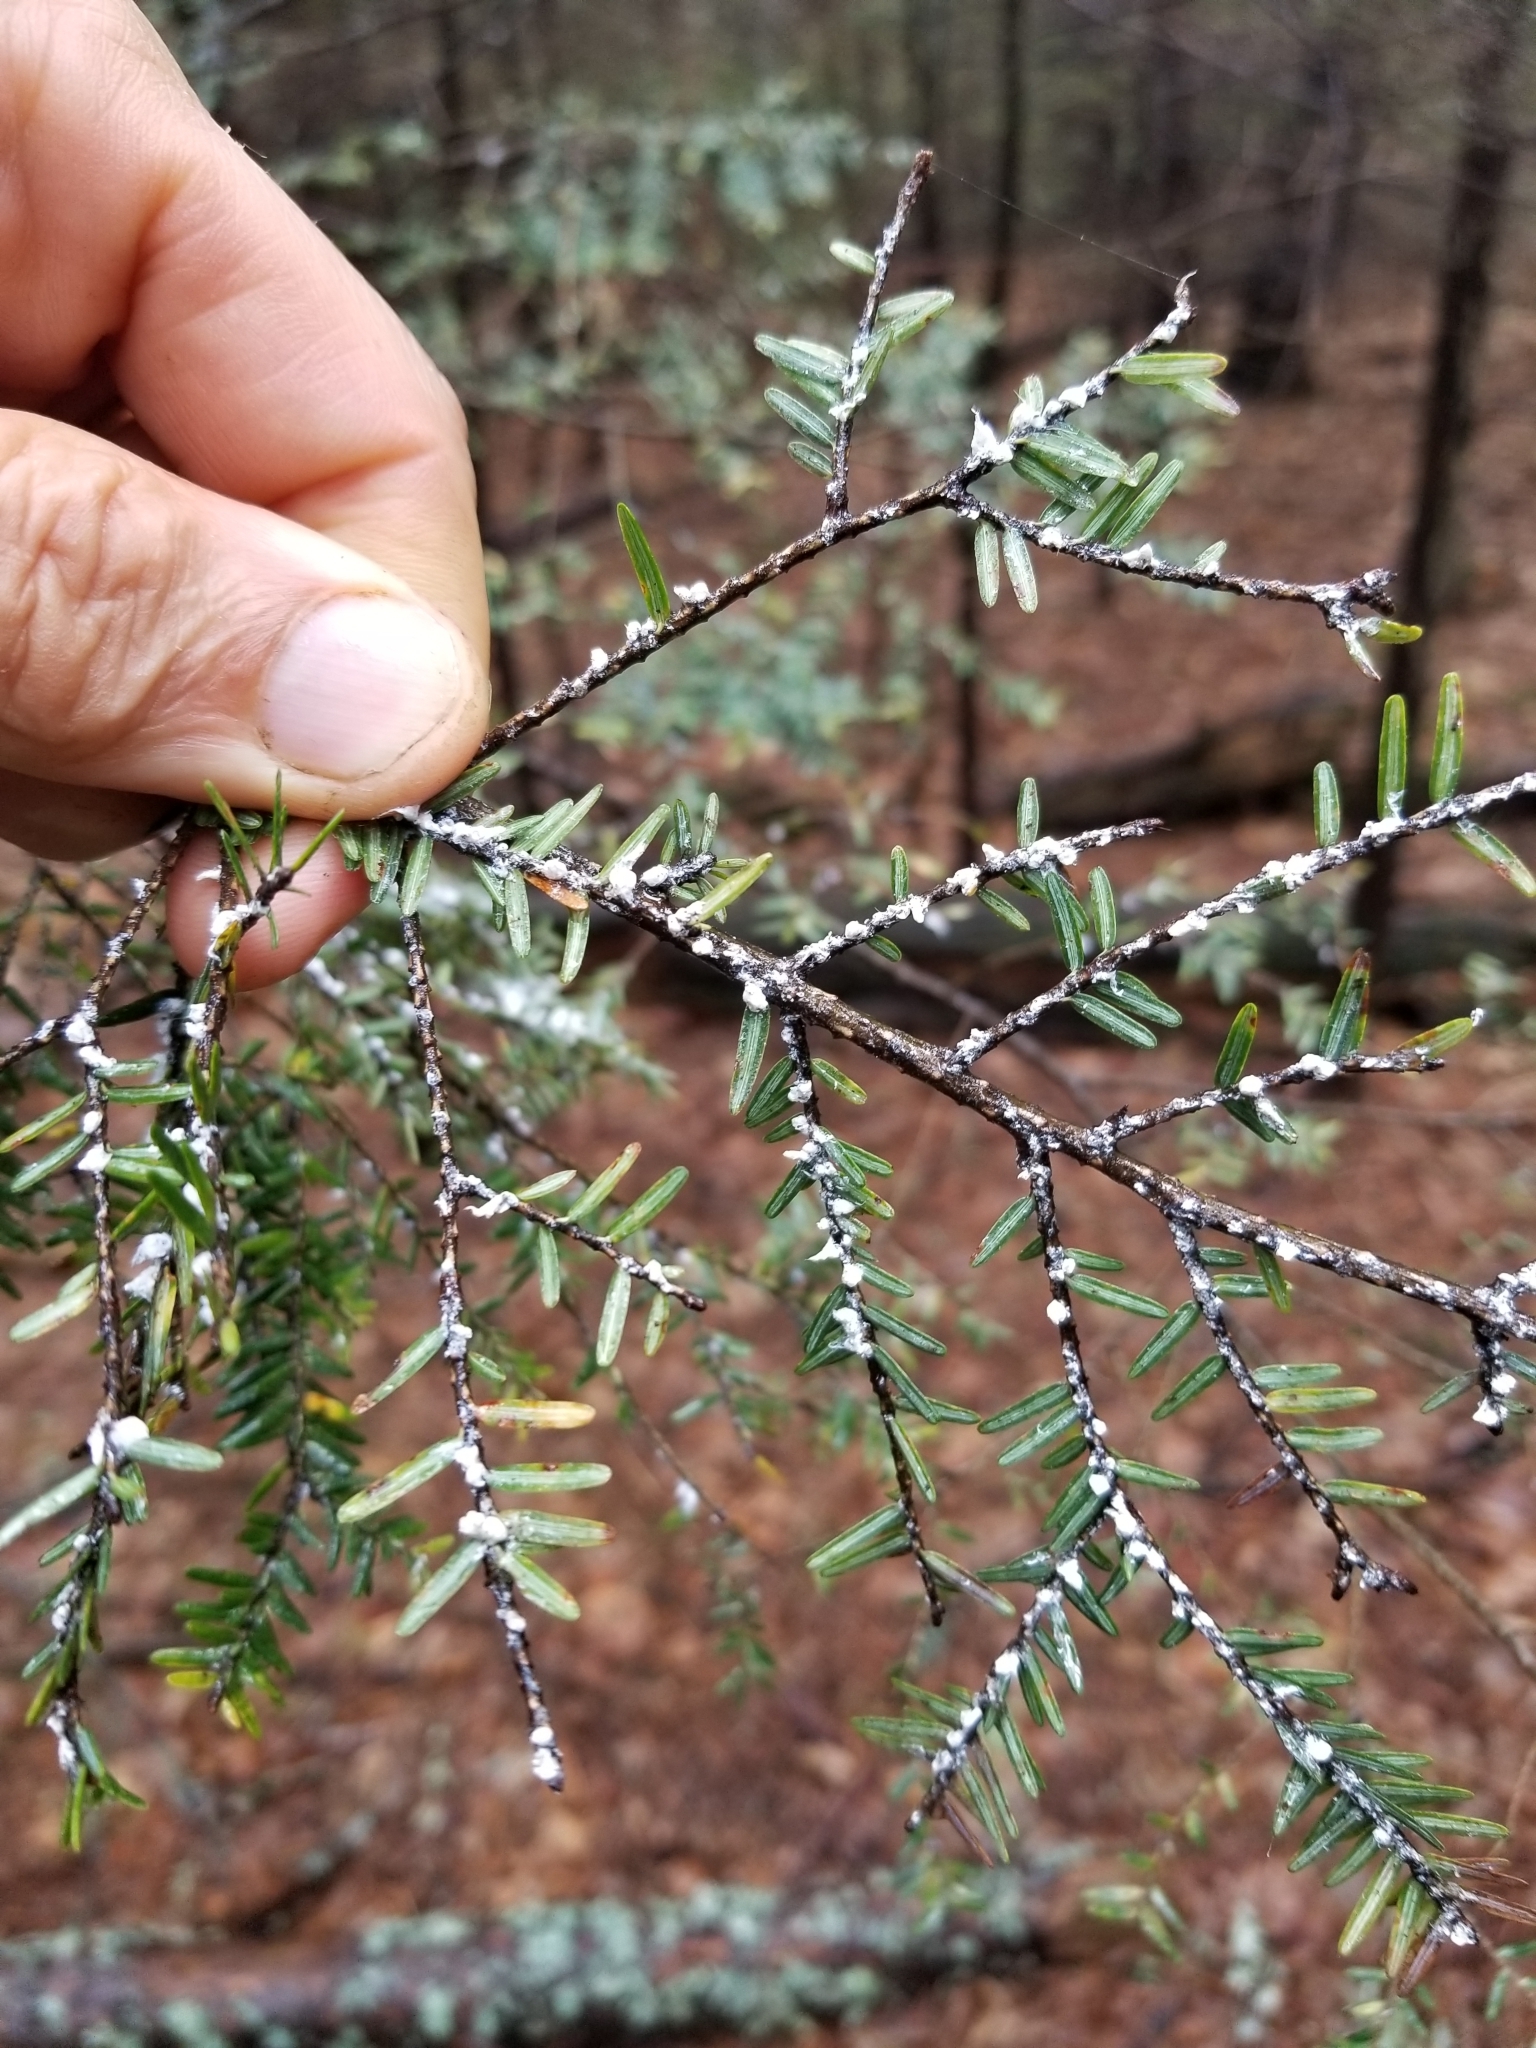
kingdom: Animalia
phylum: Arthropoda
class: Insecta
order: Hemiptera
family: Adelgidae
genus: Adelges
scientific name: Adelges tsugae
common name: Hemlock woolly adelgid
